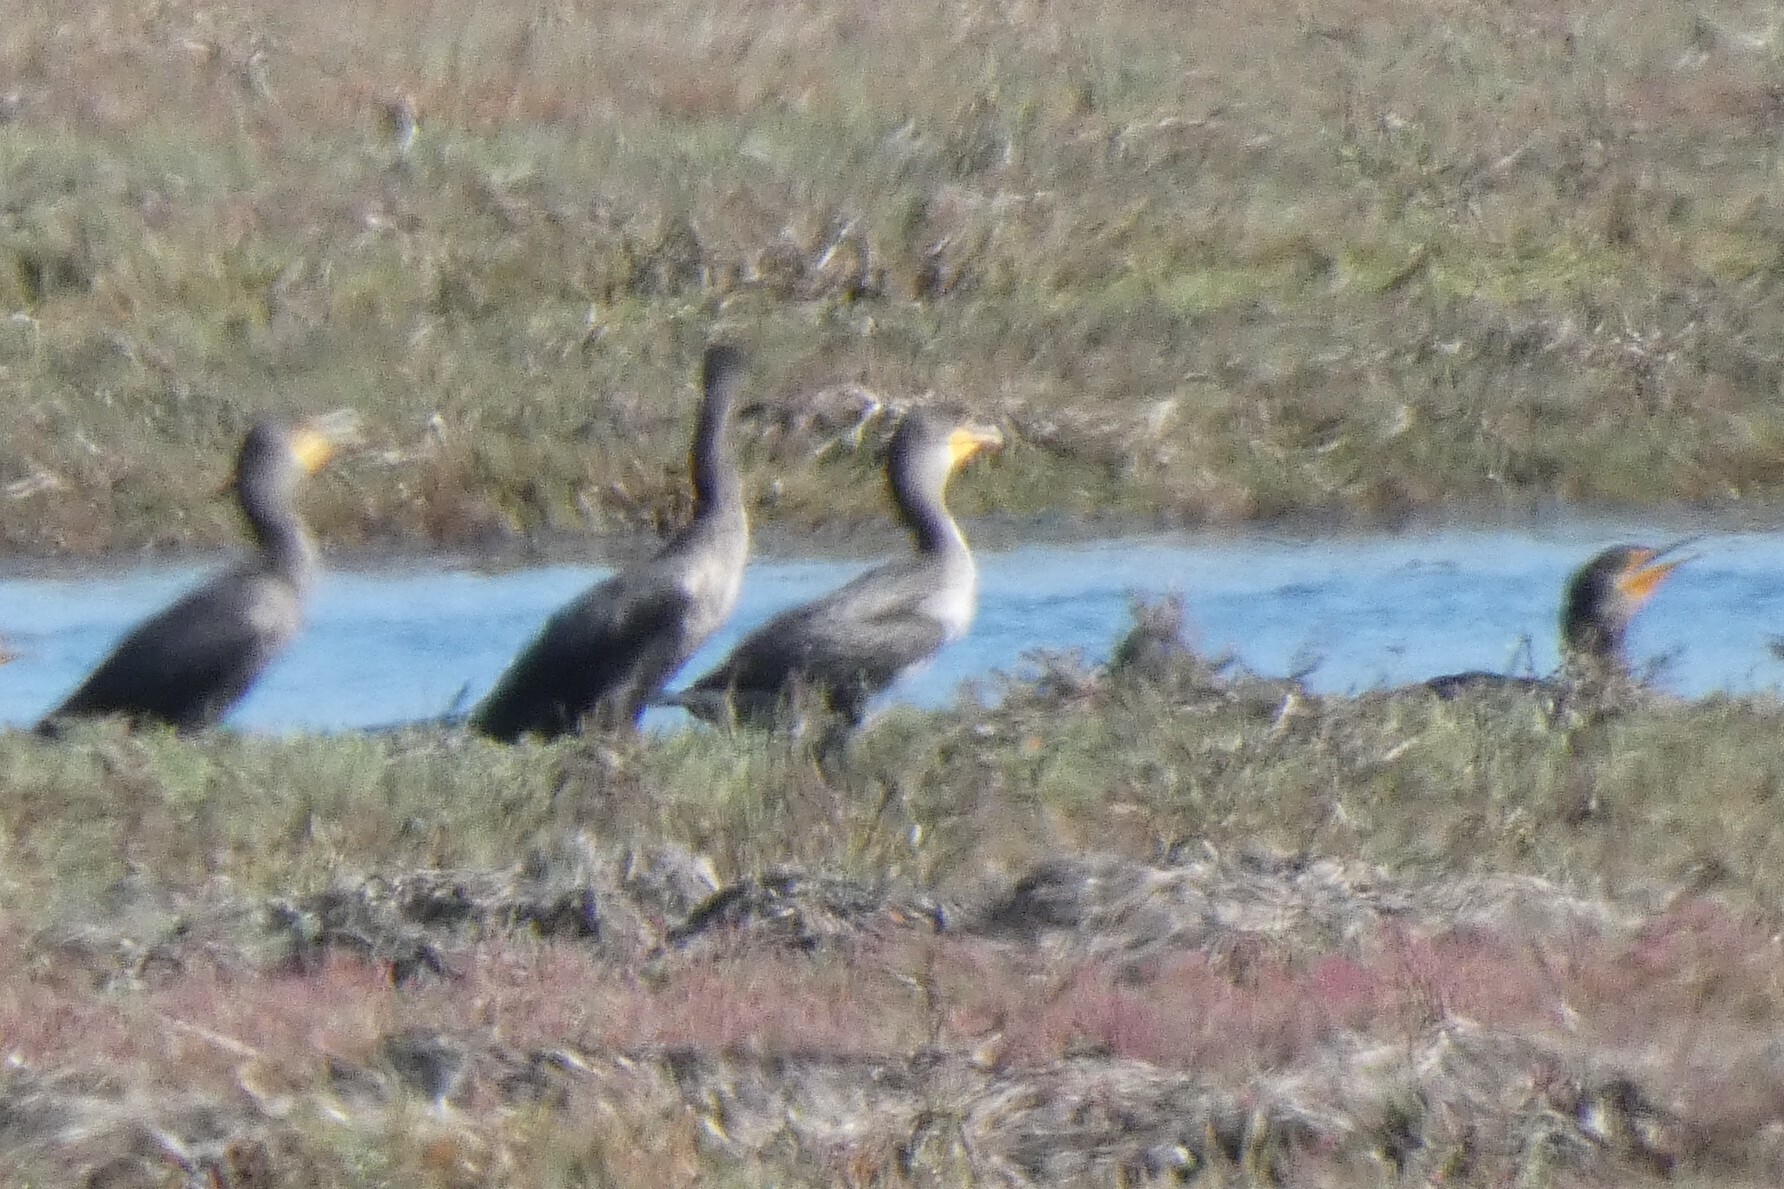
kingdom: Animalia
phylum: Chordata
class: Aves
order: Suliformes
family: Phalacrocoracidae
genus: Phalacrocorax
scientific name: Phalacrocorax auritus
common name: Double-crested cormorant
